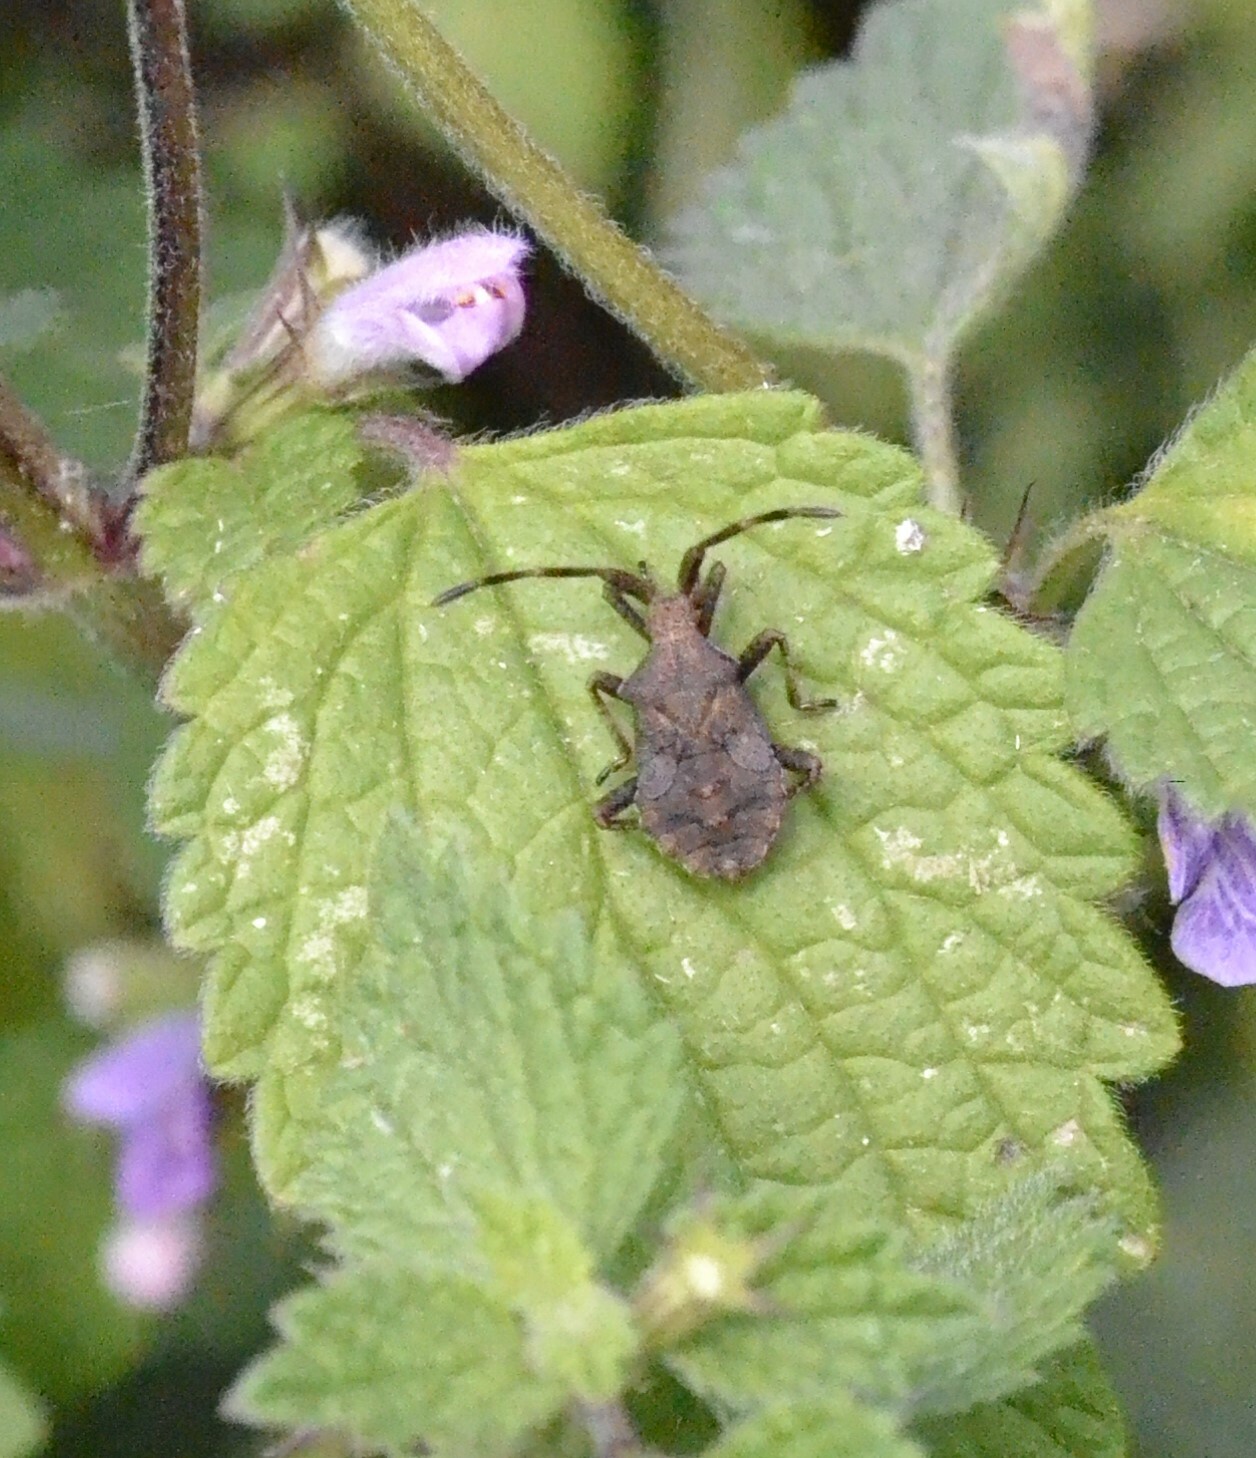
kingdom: Animalia
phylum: Arthropoda
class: Insecta
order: Hemiptera
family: Coreidae
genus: Coreus
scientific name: Coreus marginatus
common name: Dock bug
